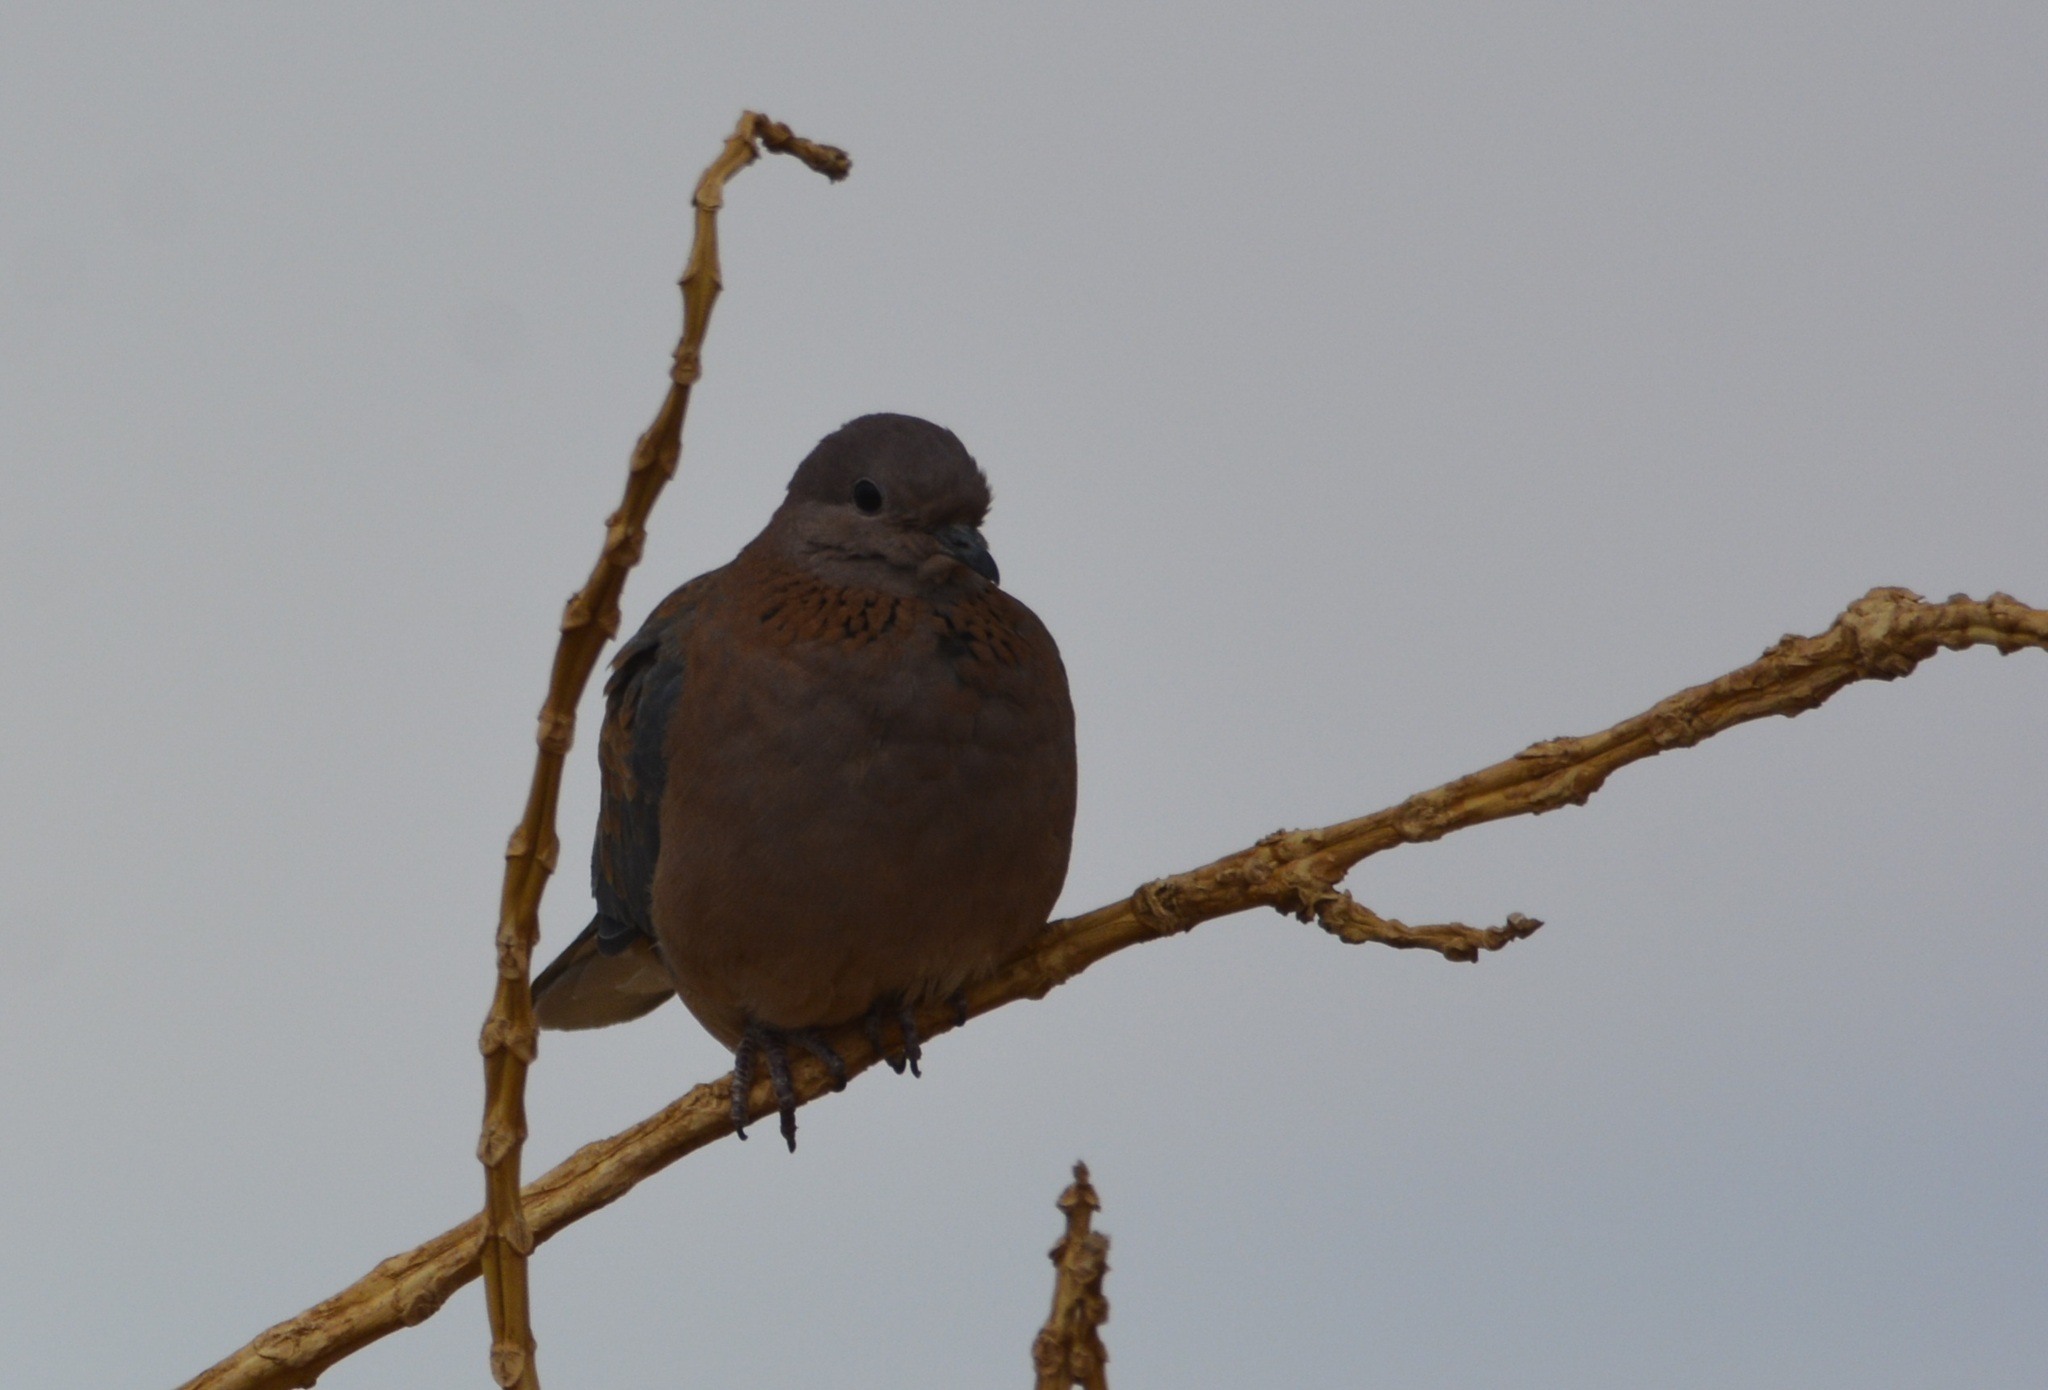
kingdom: Animalia
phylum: Chordata
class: Aves
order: Columbiformes
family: Columbidae
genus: Spilopelia
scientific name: Spilopelia senegalensis
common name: Laughing dove
